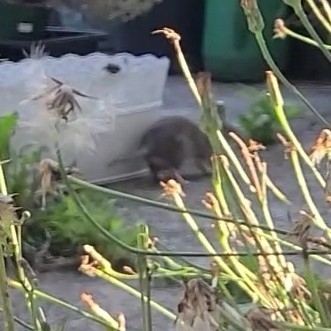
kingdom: Animalia
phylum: Chordata
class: Mammalia
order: Rodentia
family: Muridae
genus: Rattus
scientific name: Rattus norvegicus
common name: Brown rat
